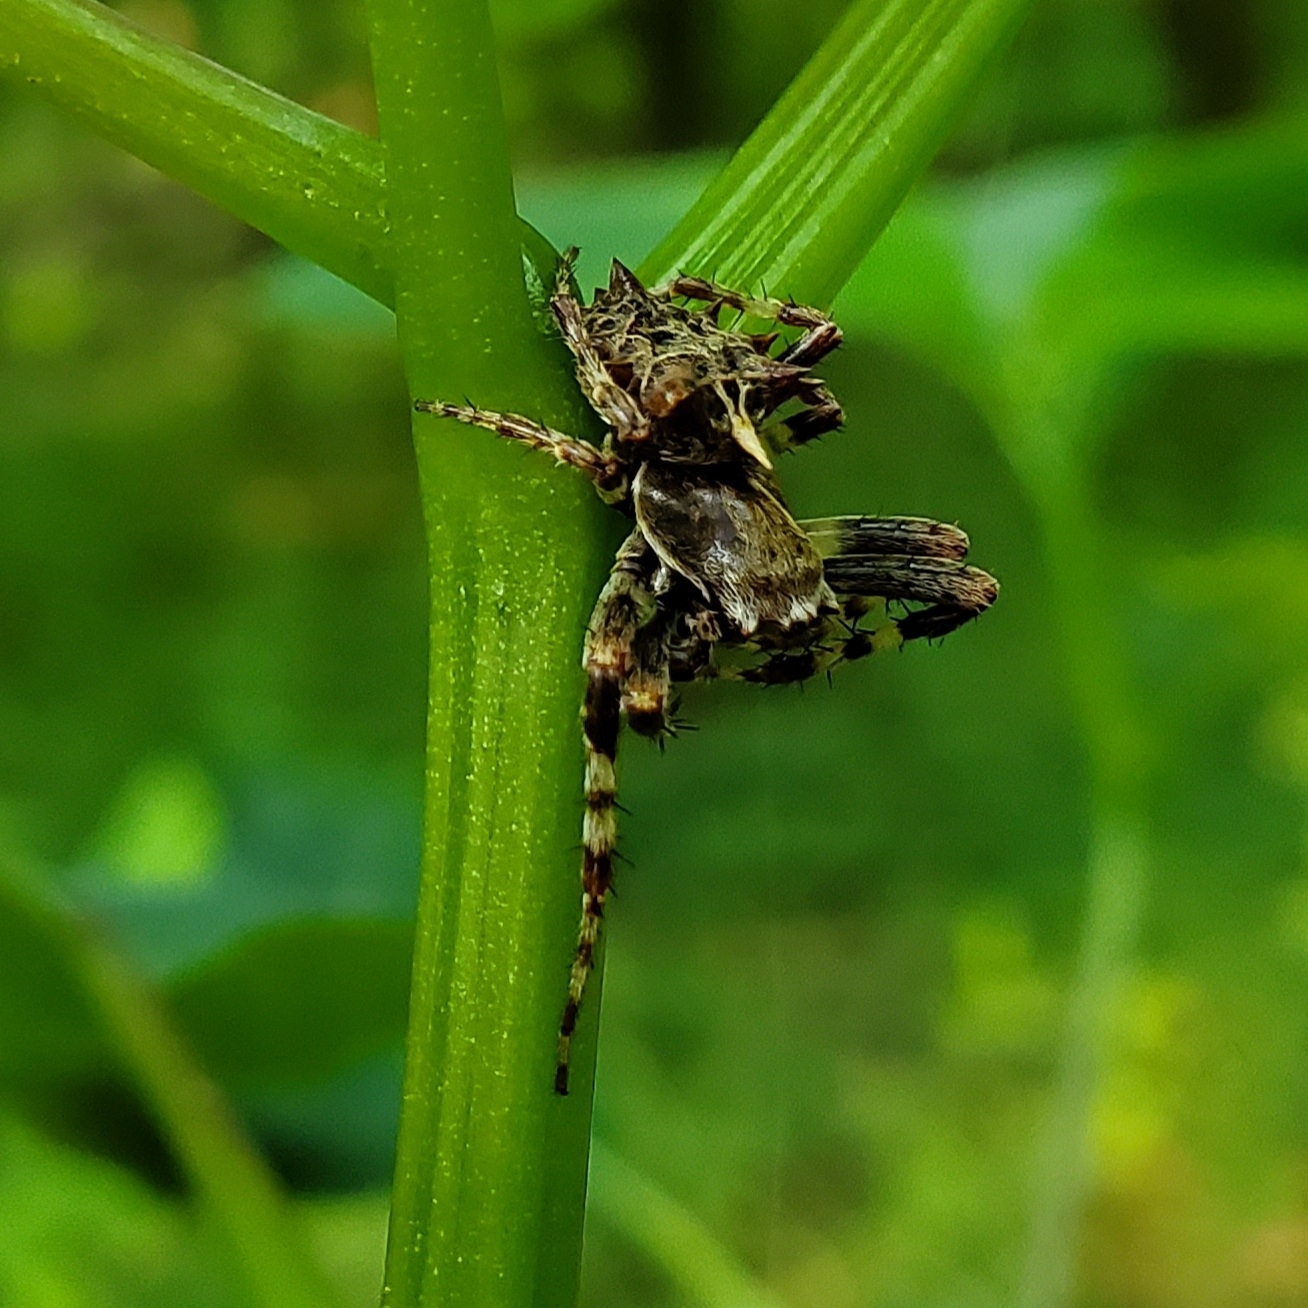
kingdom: Animalia
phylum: Arthropoda
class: Arachnida
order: Araneae
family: Araneidae
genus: Acanthepeira
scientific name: Acanthepeira stellata
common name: Starbellied orbweaver
